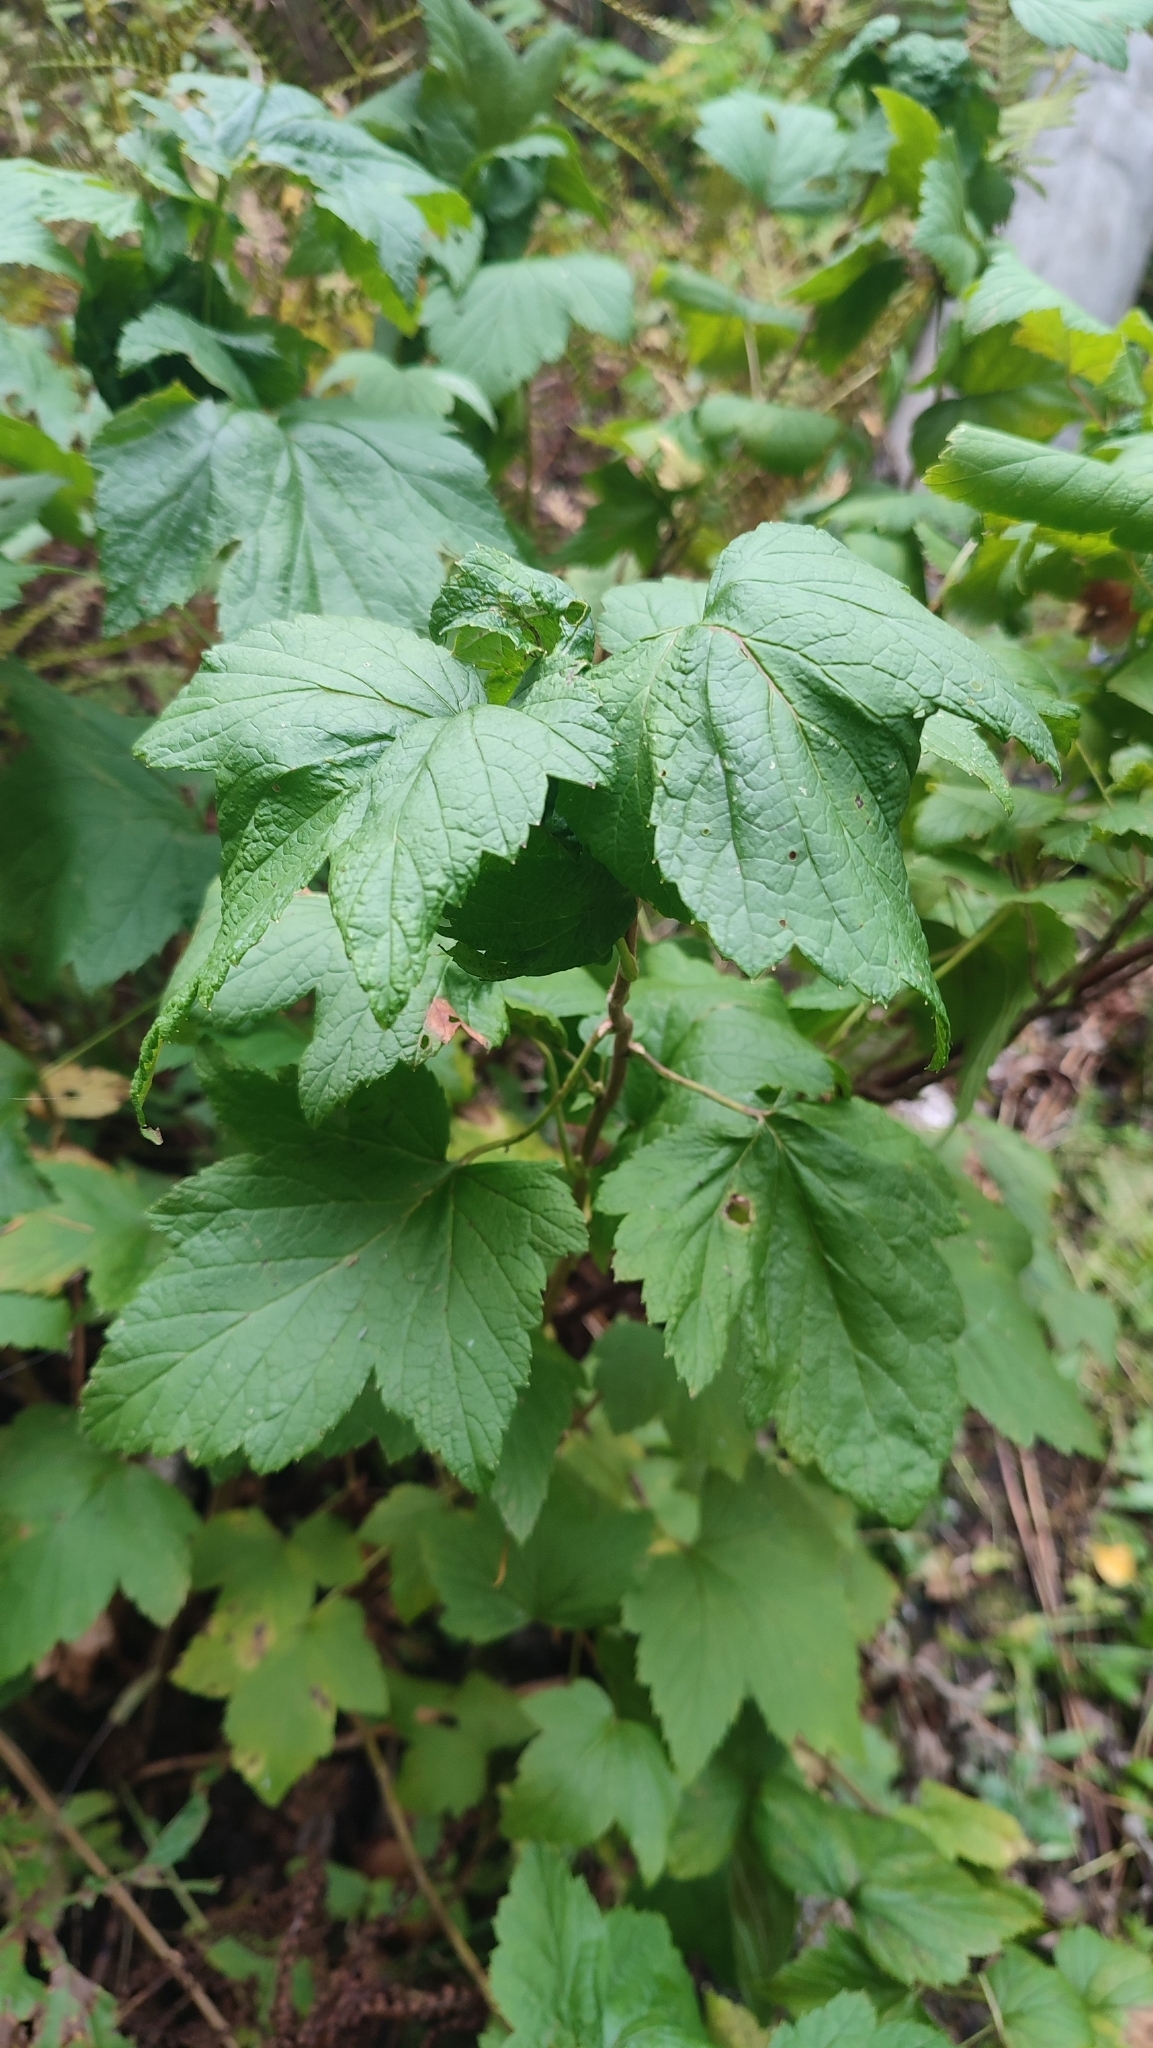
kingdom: Plantae
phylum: Tracheophyta
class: Magnoliopsida
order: Saxifragales
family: Grossulariaceae
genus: Ribes
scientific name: Ribes nigrum
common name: Black currant
